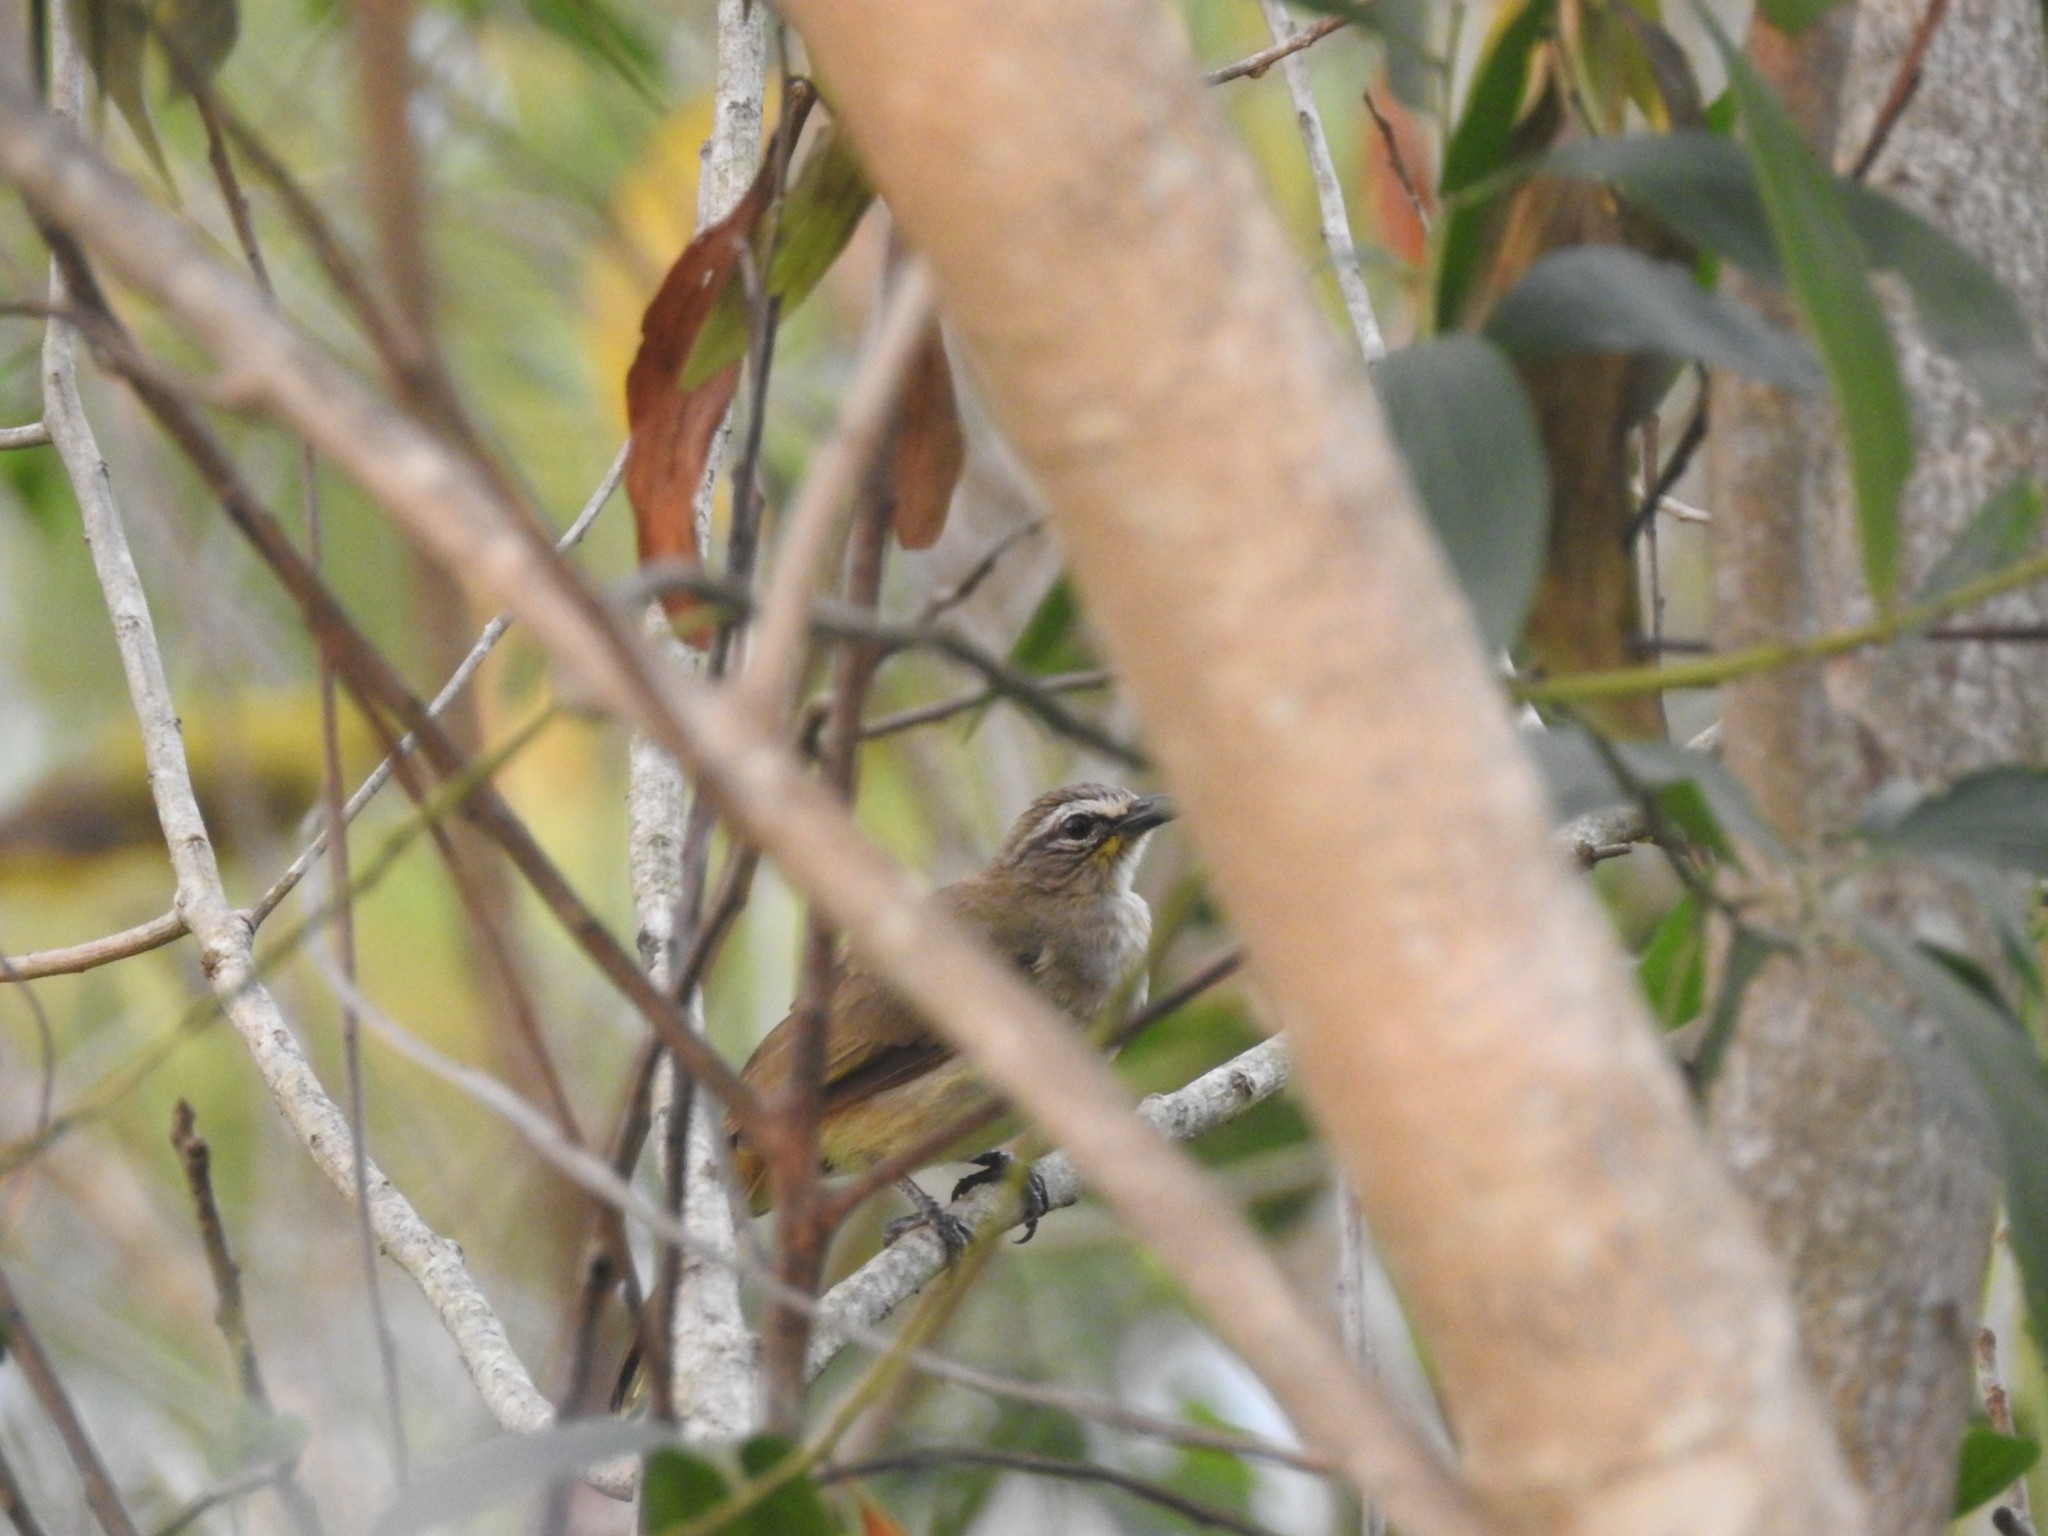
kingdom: Animalia
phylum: Chordata
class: Aves
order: Passeriformes
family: Pycnonotidae
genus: Pycnonotus
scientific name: Pycnonotus luteolus
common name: White-browed bulbul
